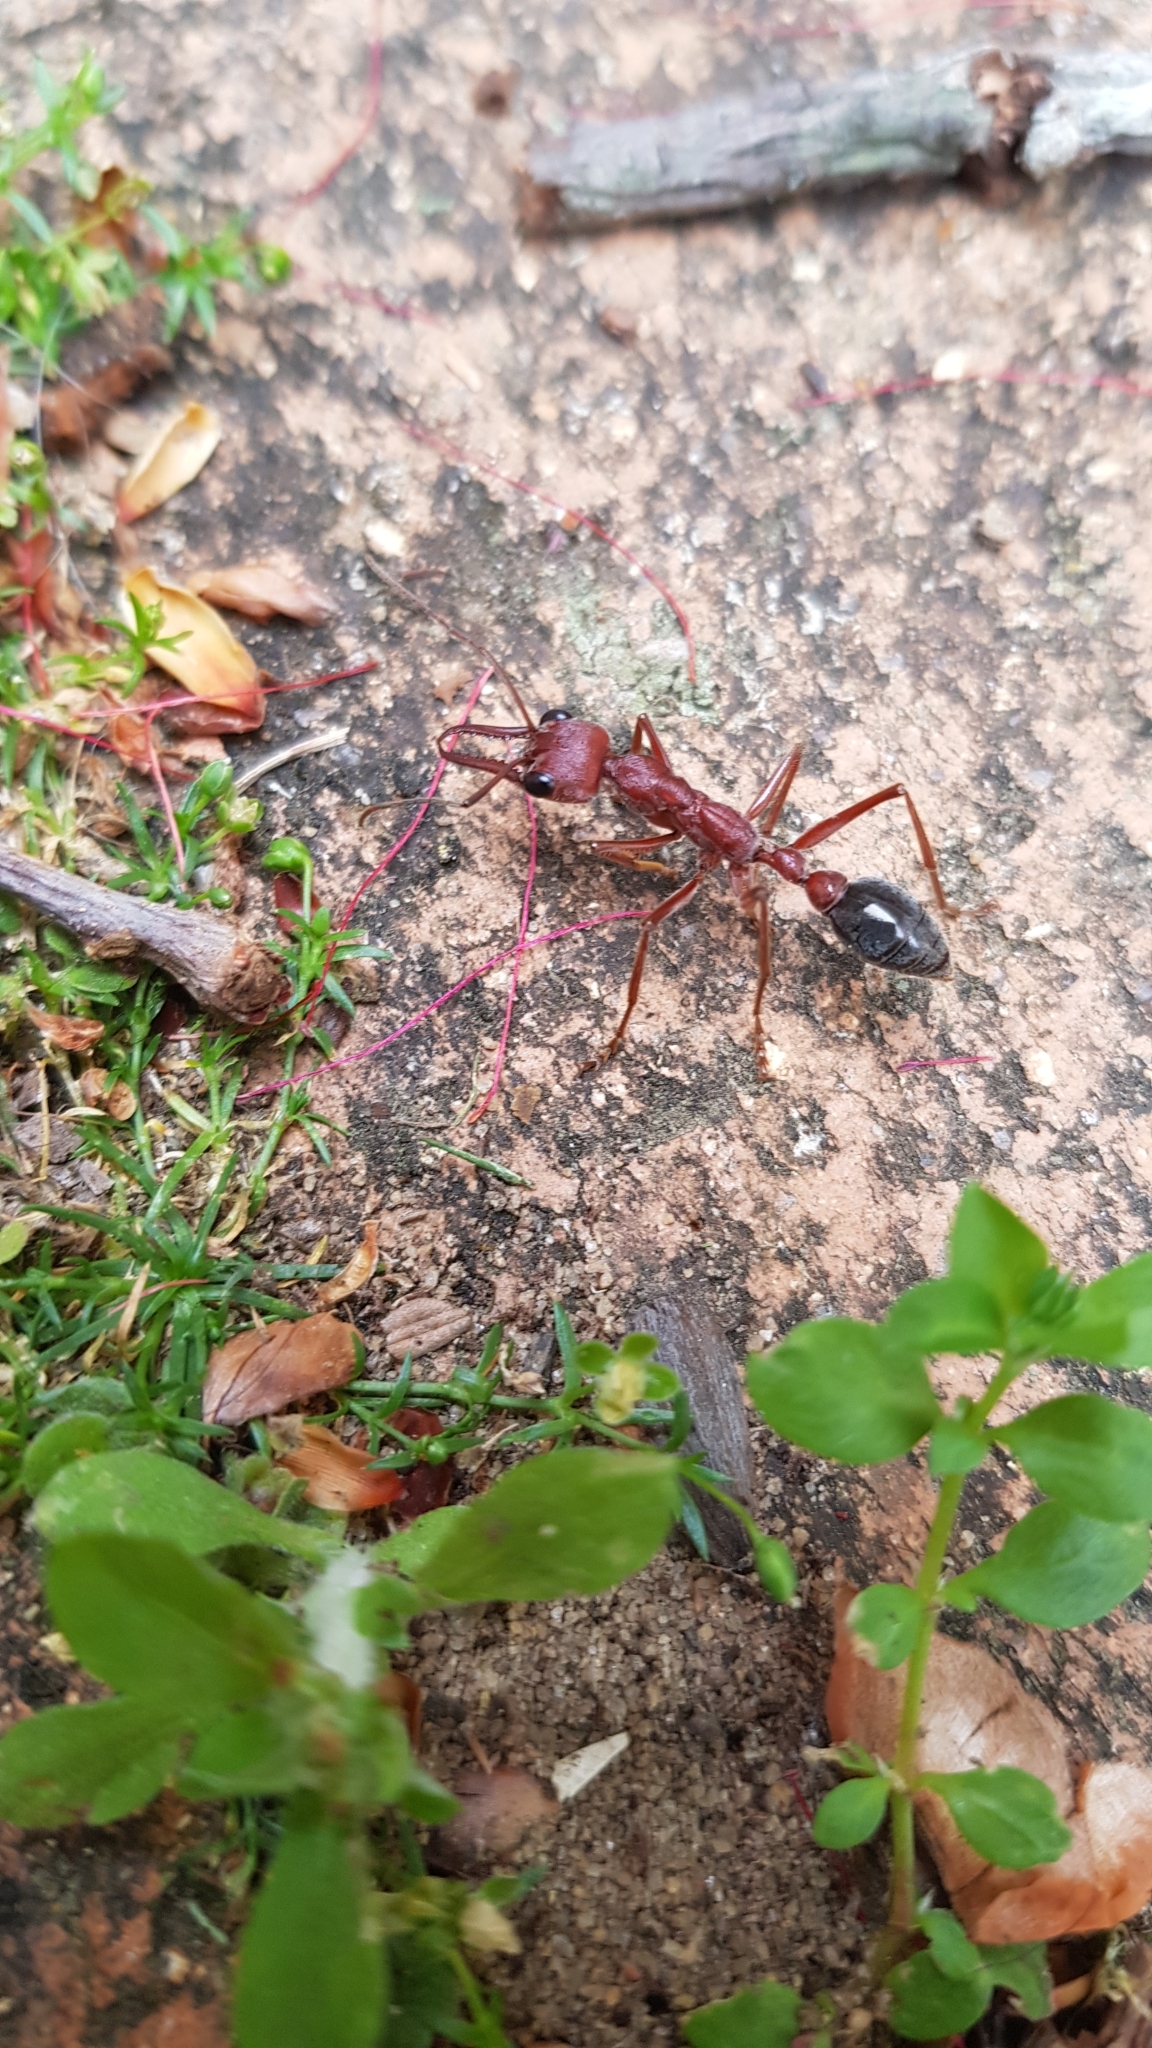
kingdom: Animalia
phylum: Arthropoda
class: Insecta
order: Hymenoptera
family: Formicidae
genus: Myrmecia
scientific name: Myrmecia brevinoda
